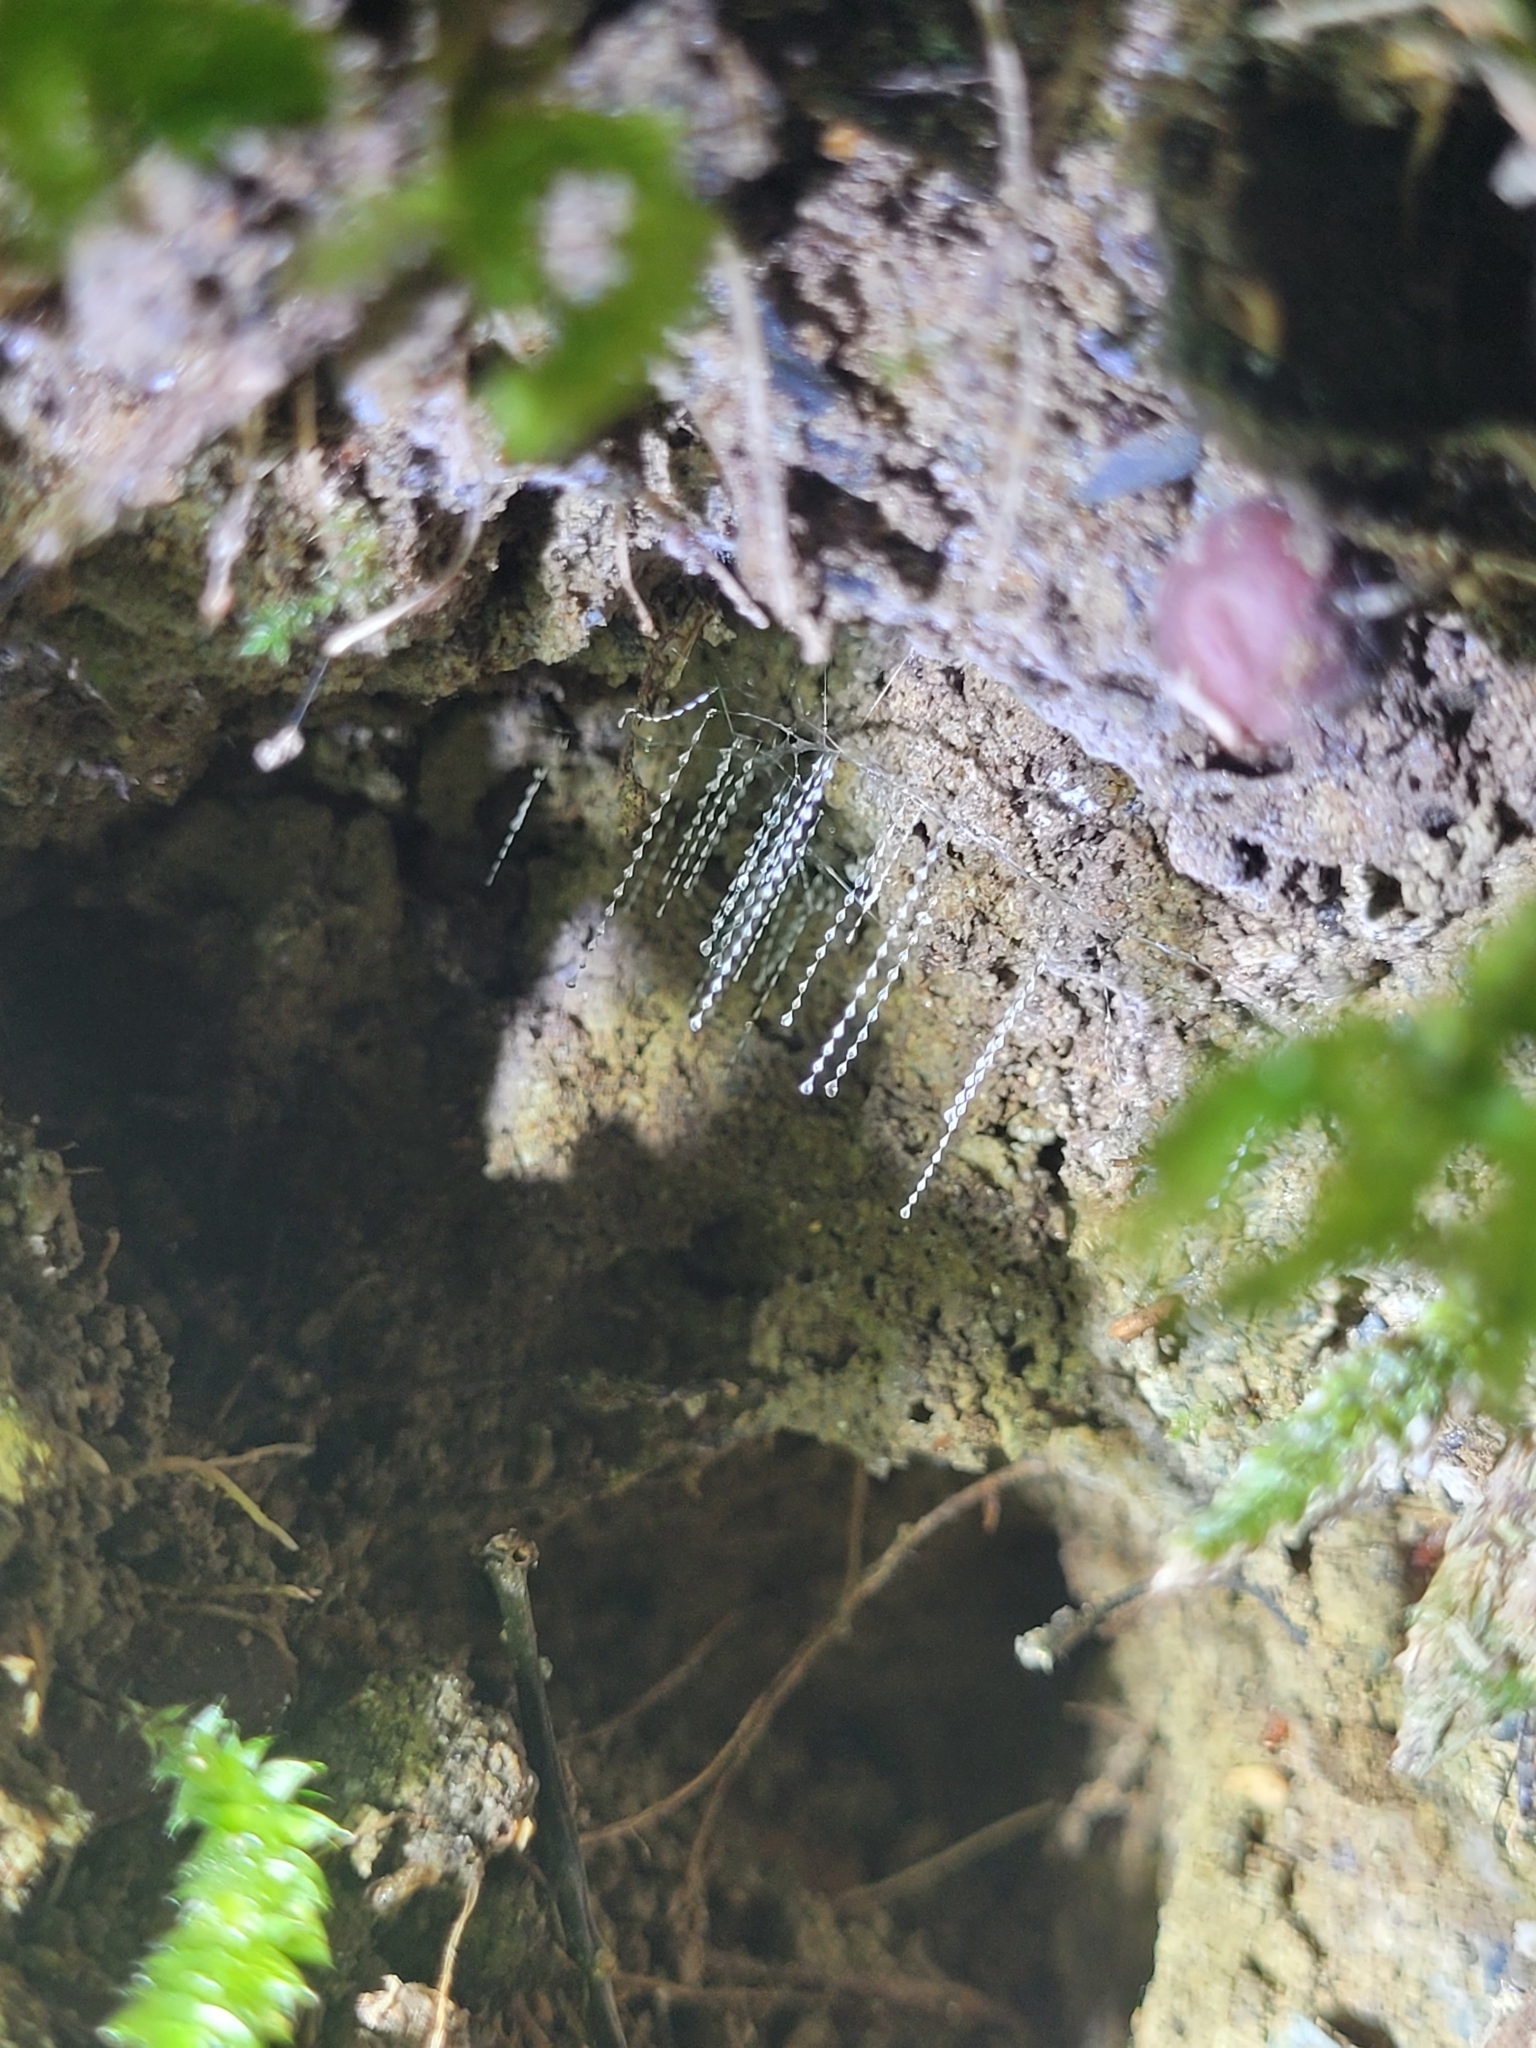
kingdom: Animalia
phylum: Arthropoda
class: Insecta
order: Diptera
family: Keroplatidae
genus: Arachnocampa
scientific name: Arachnocampa luminosa
